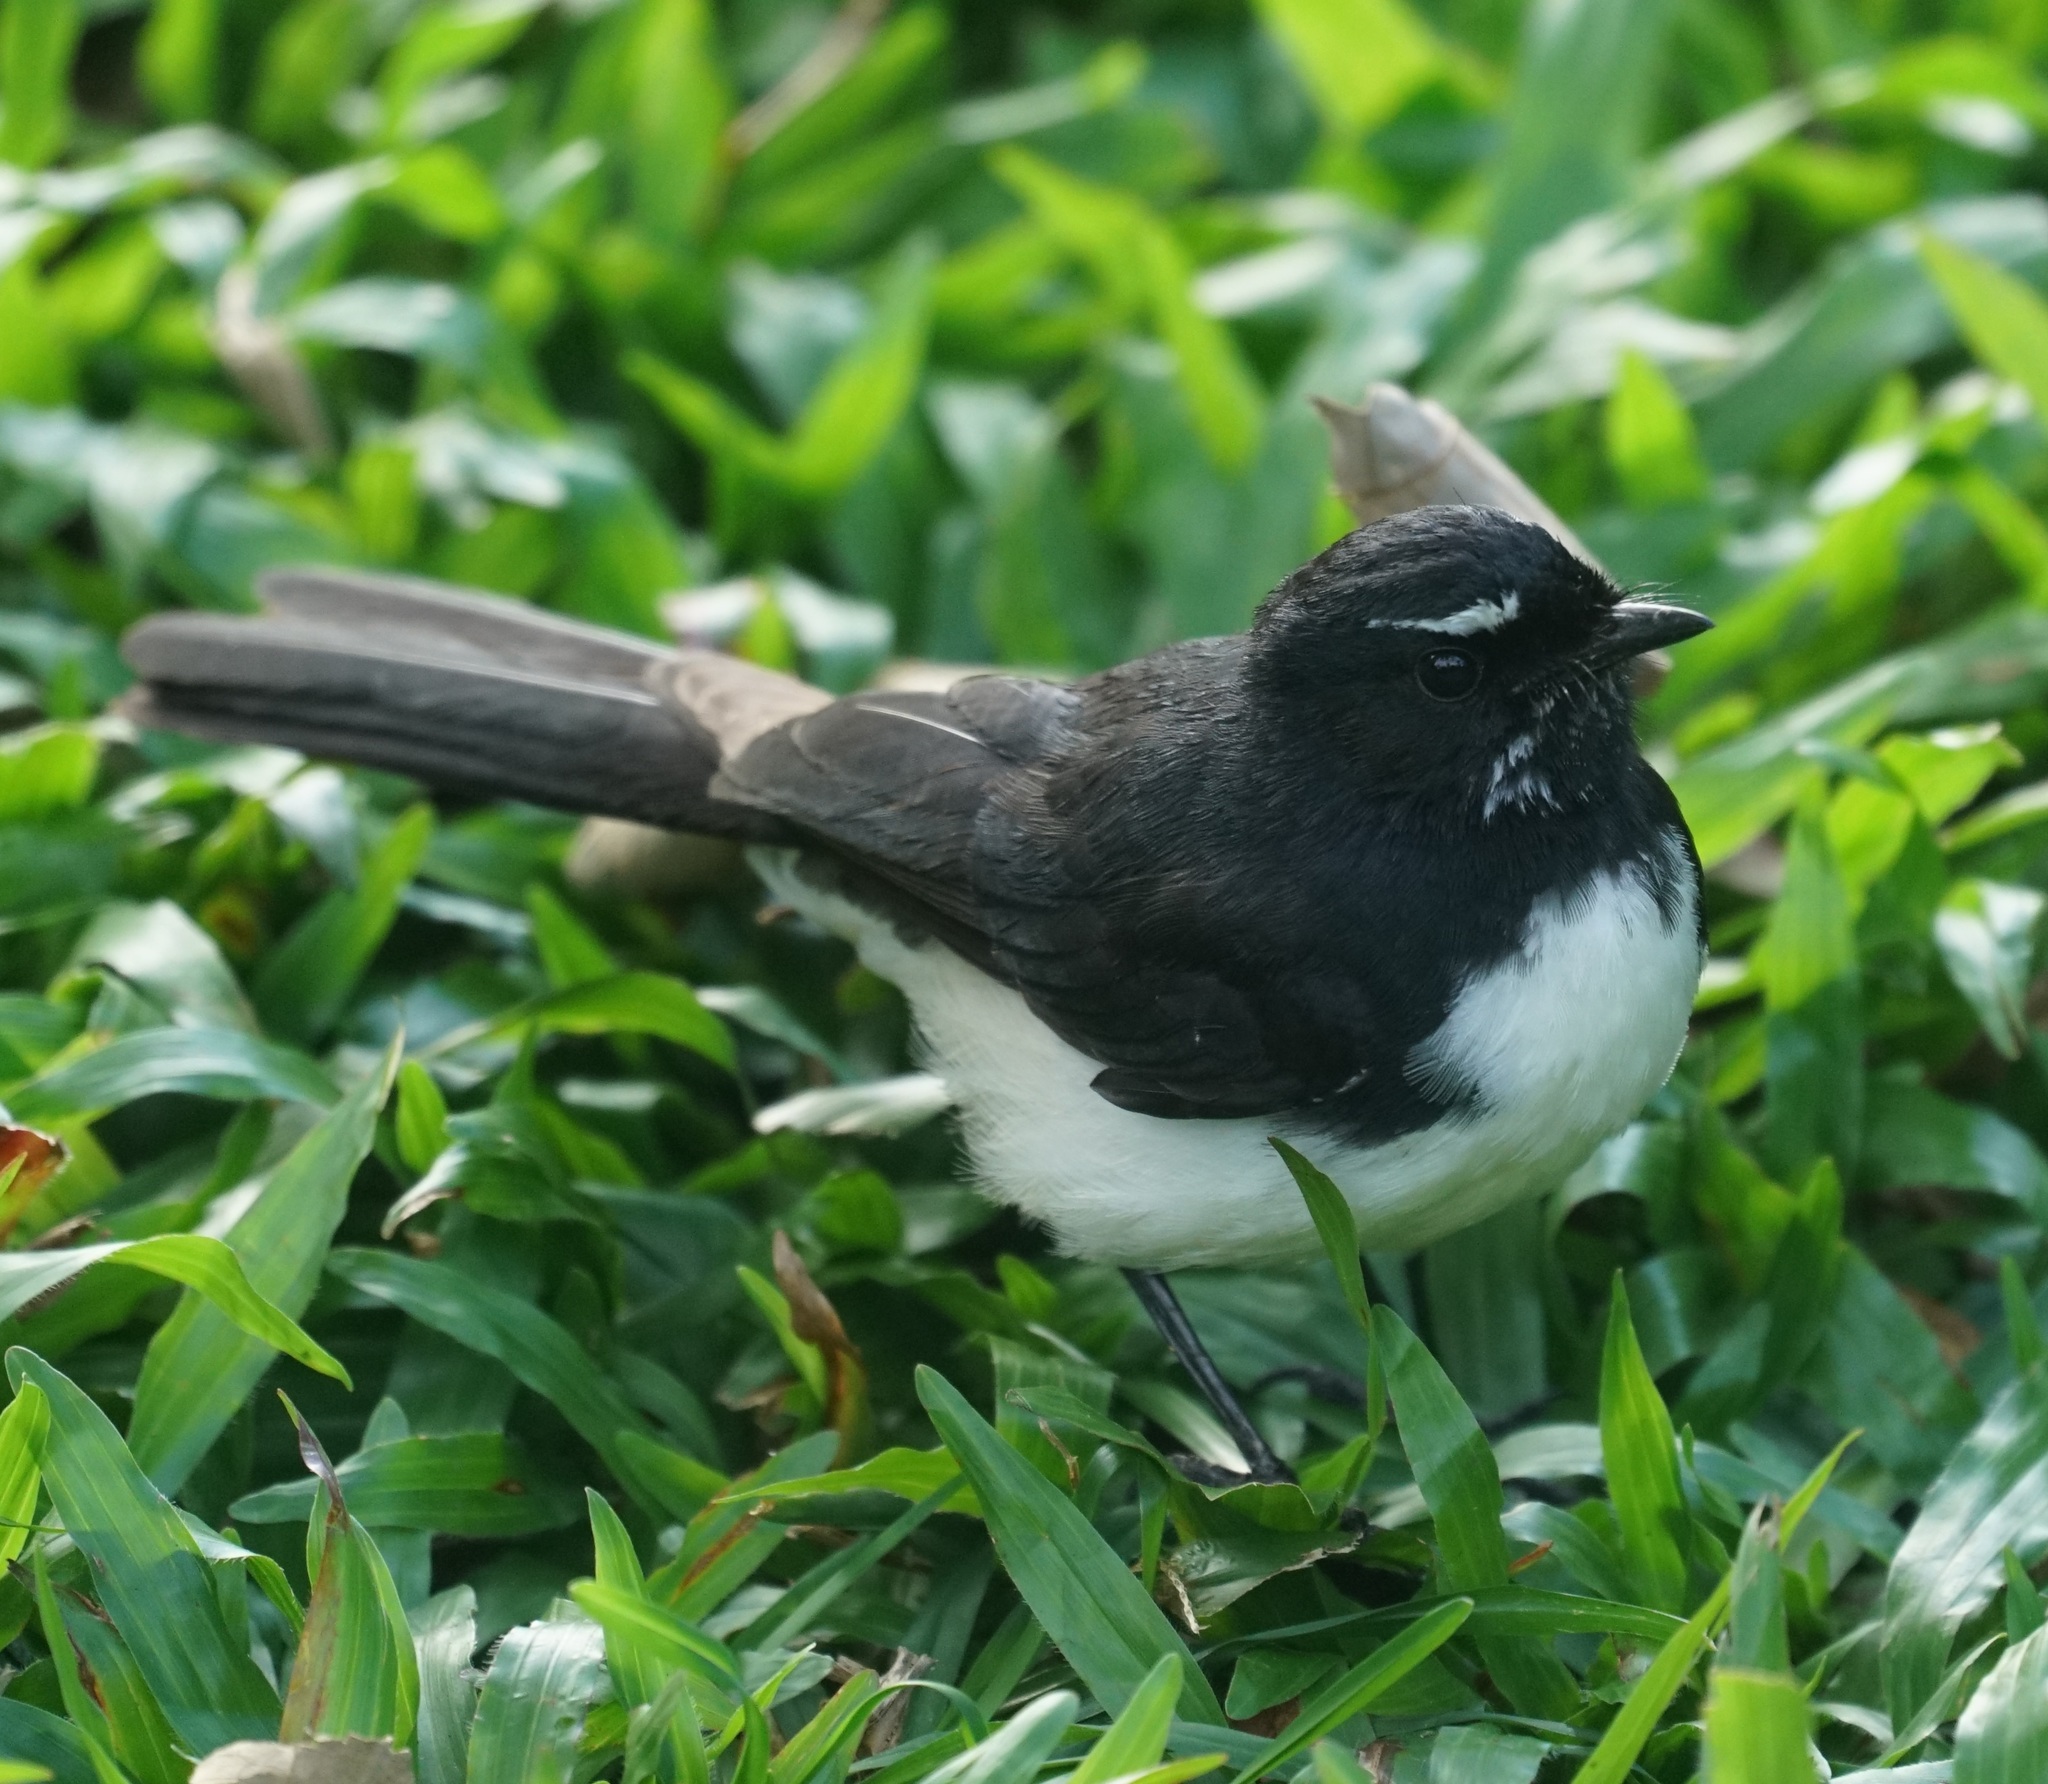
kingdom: Animalia
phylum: Chordata
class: Aves
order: Passeriformes
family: Rhipiduridae
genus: Rhipidura
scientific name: Rhipidura leucophrys
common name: Willie wagtail
